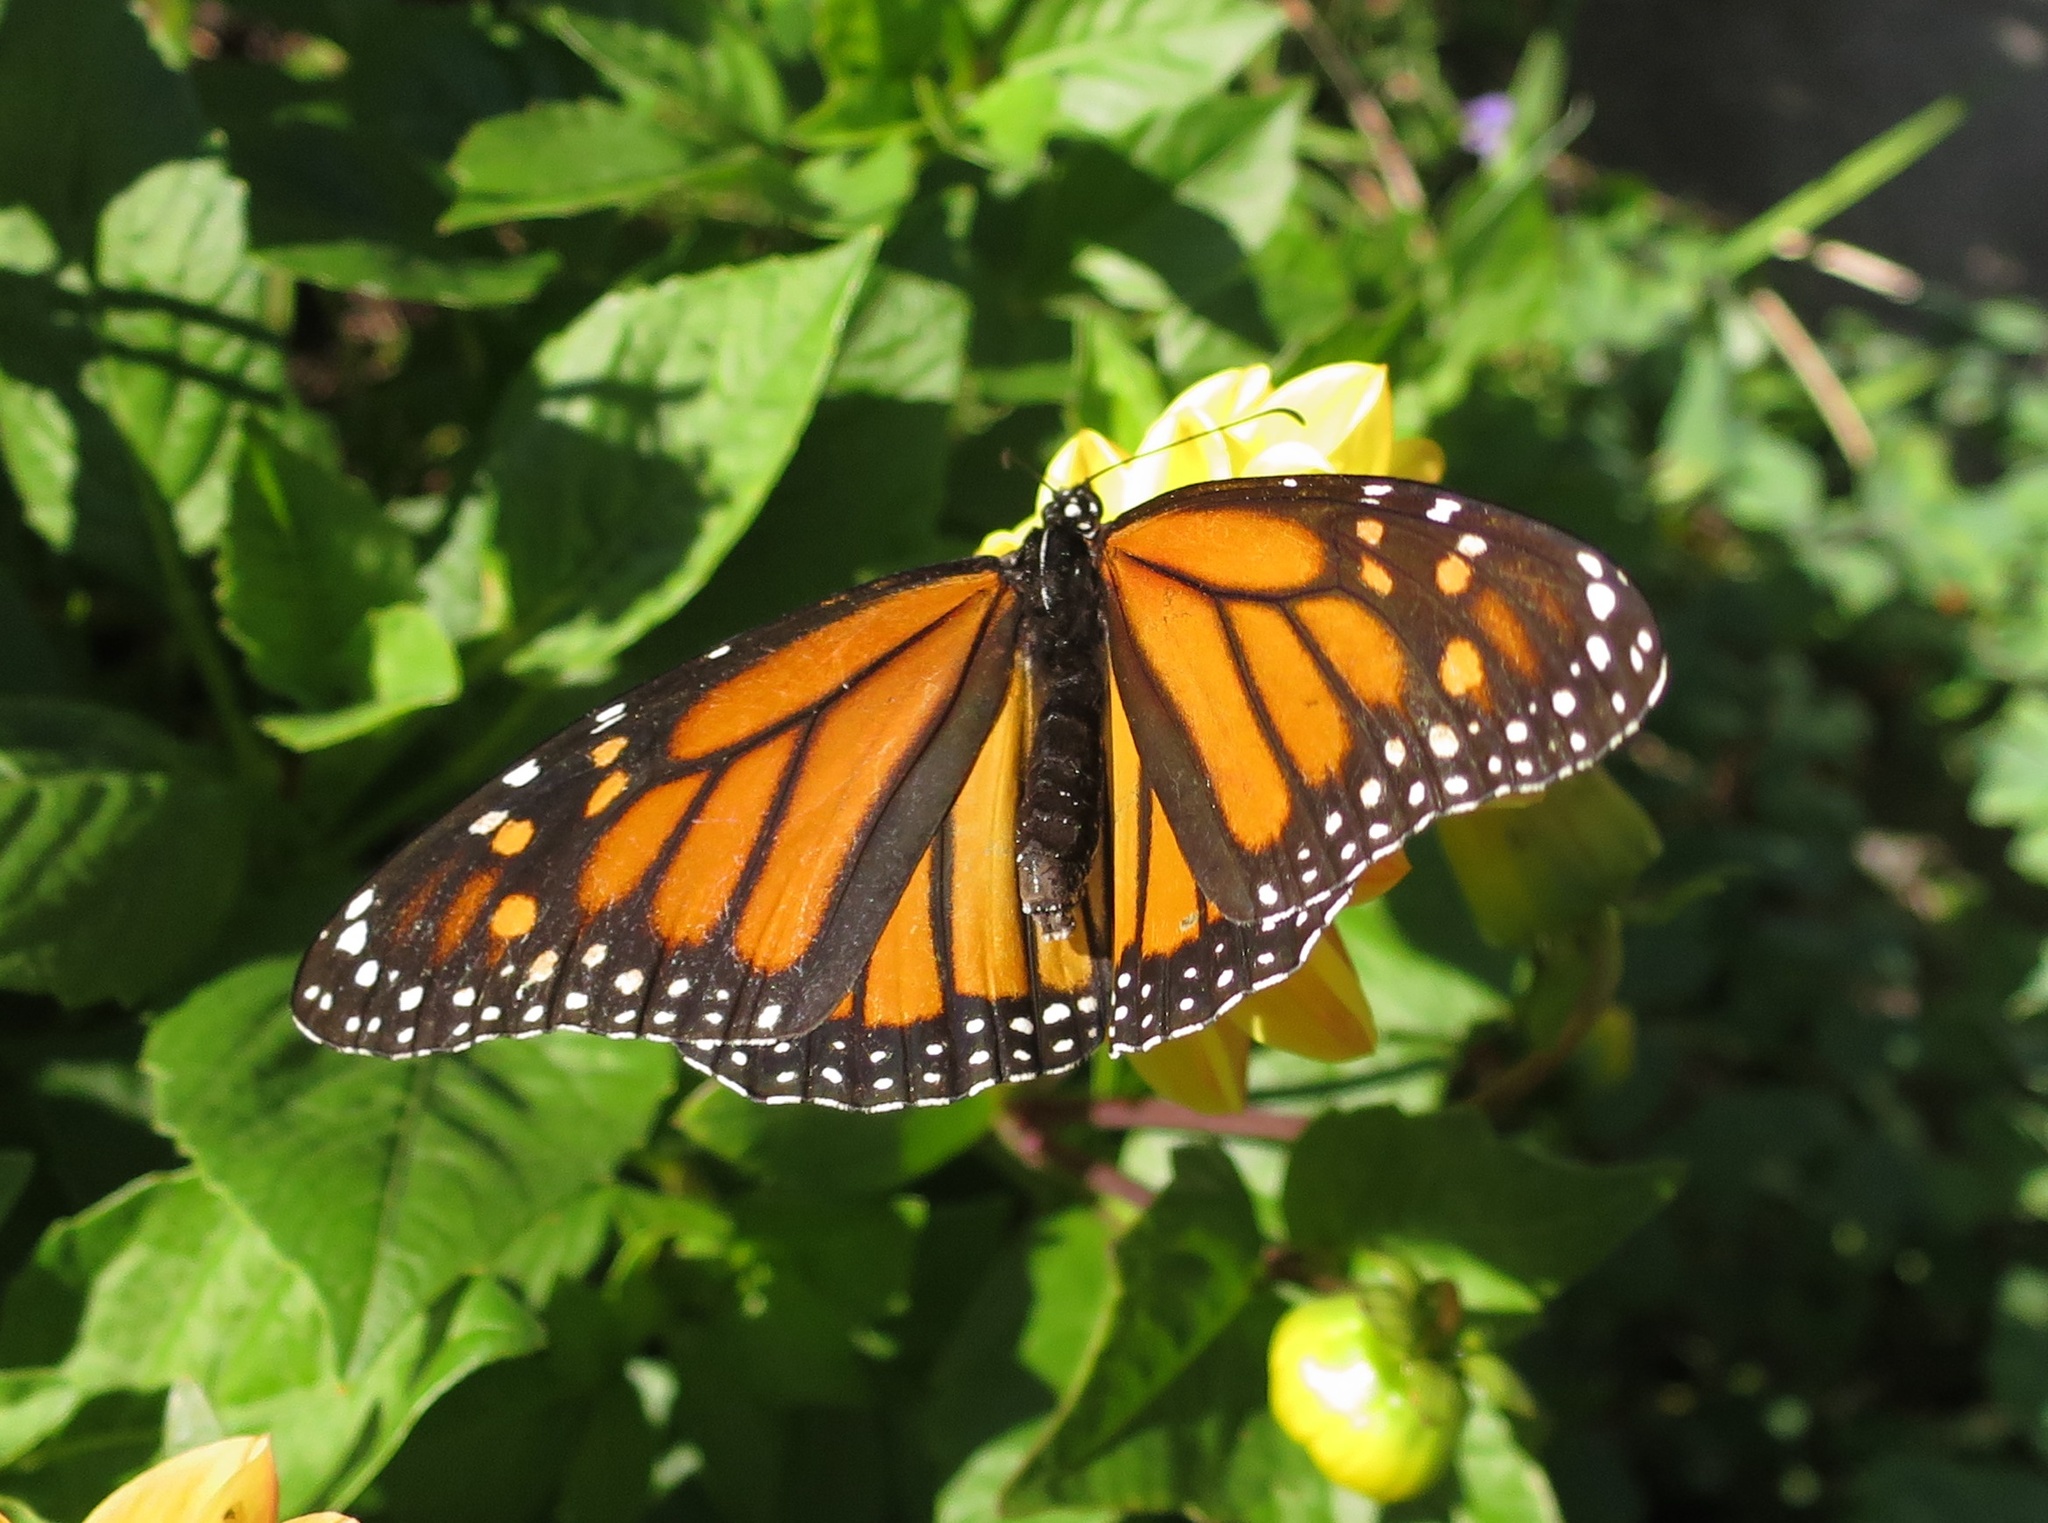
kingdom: Animalia
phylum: Arthropoda
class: Insecta
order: Lepidoptera
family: Nymphalidae
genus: Danaus
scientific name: Danaus plexippus
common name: Monarch
